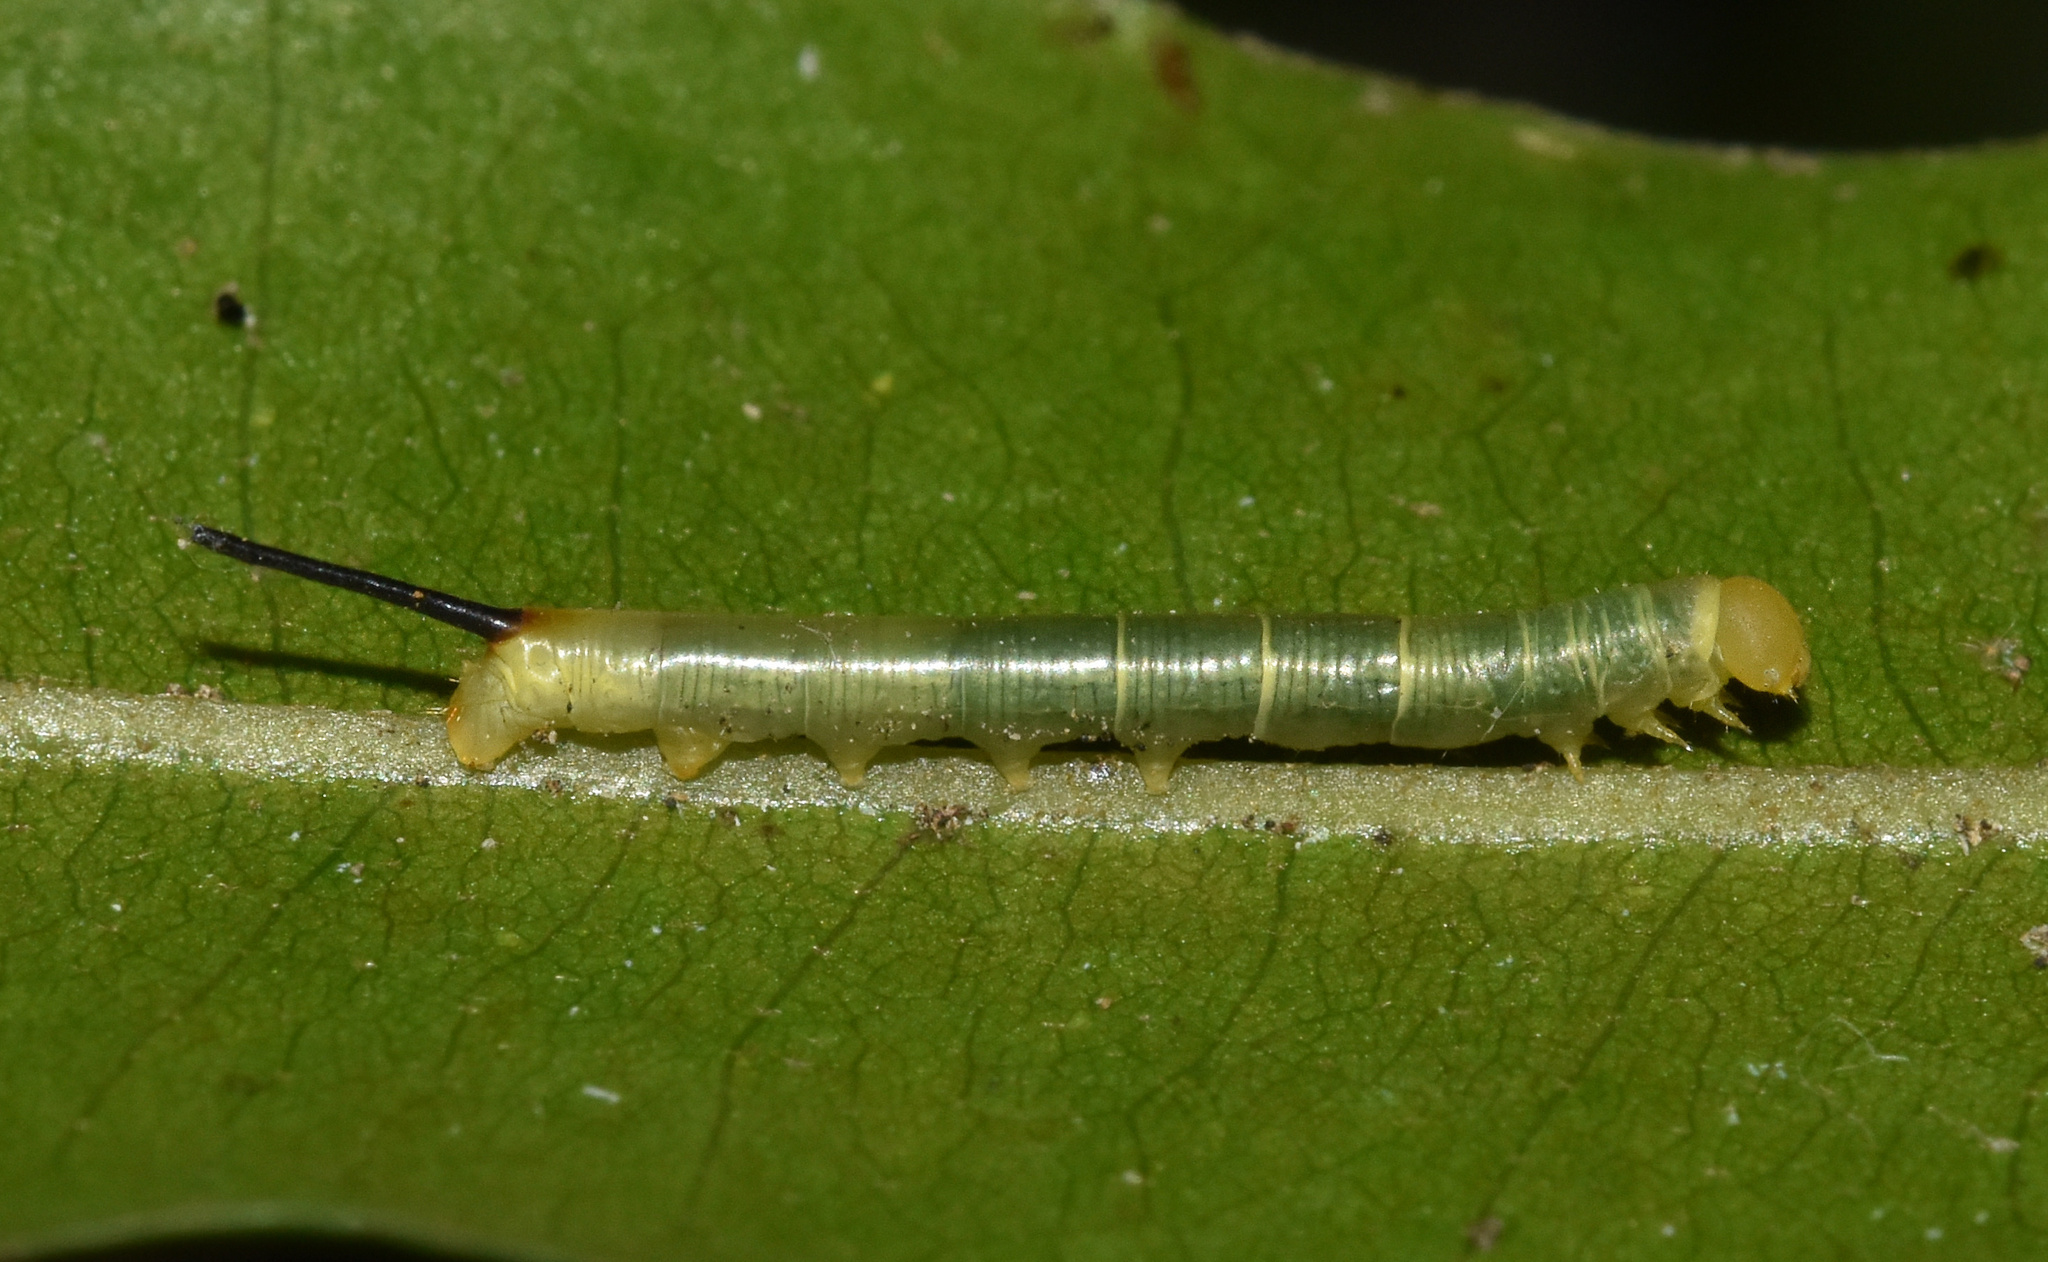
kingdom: Animalia
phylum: Arthropoda
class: Insecta
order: Lepidoptera
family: Sphingidae
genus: Xanthopan
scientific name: Xanthopan morganii
